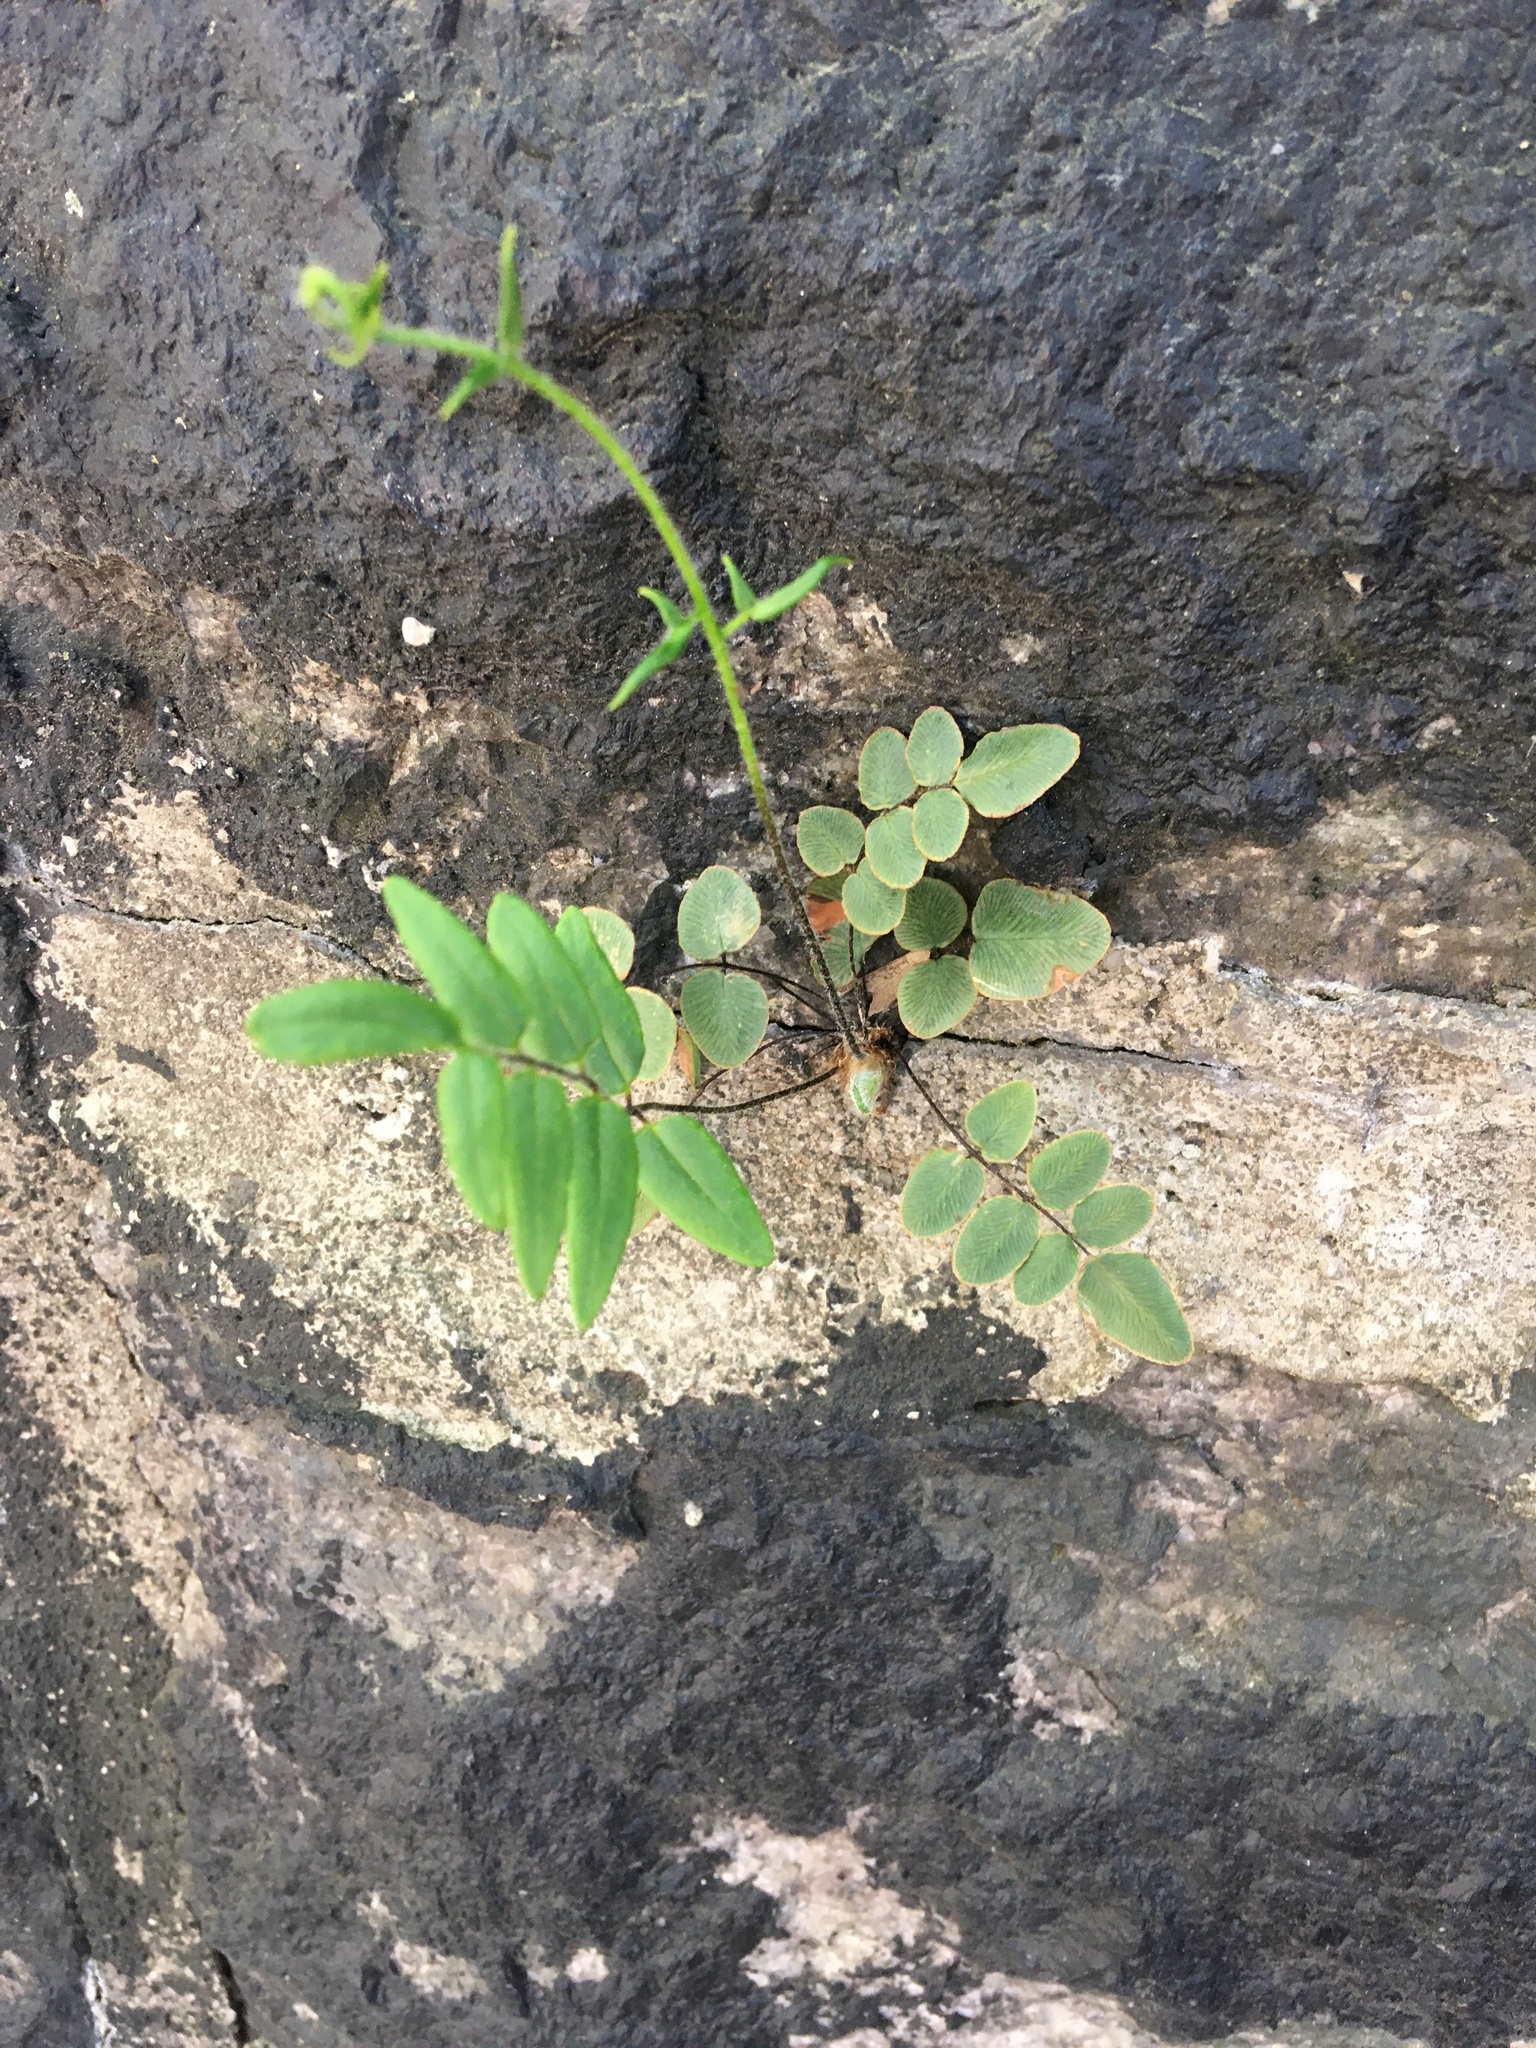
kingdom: Plantae
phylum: Tracheophyta
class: Polypodiopsida
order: Polypodiales
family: Pteridaceae
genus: Pellaea
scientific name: Pellaea atropurpurea
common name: Hairy cliffbrake
